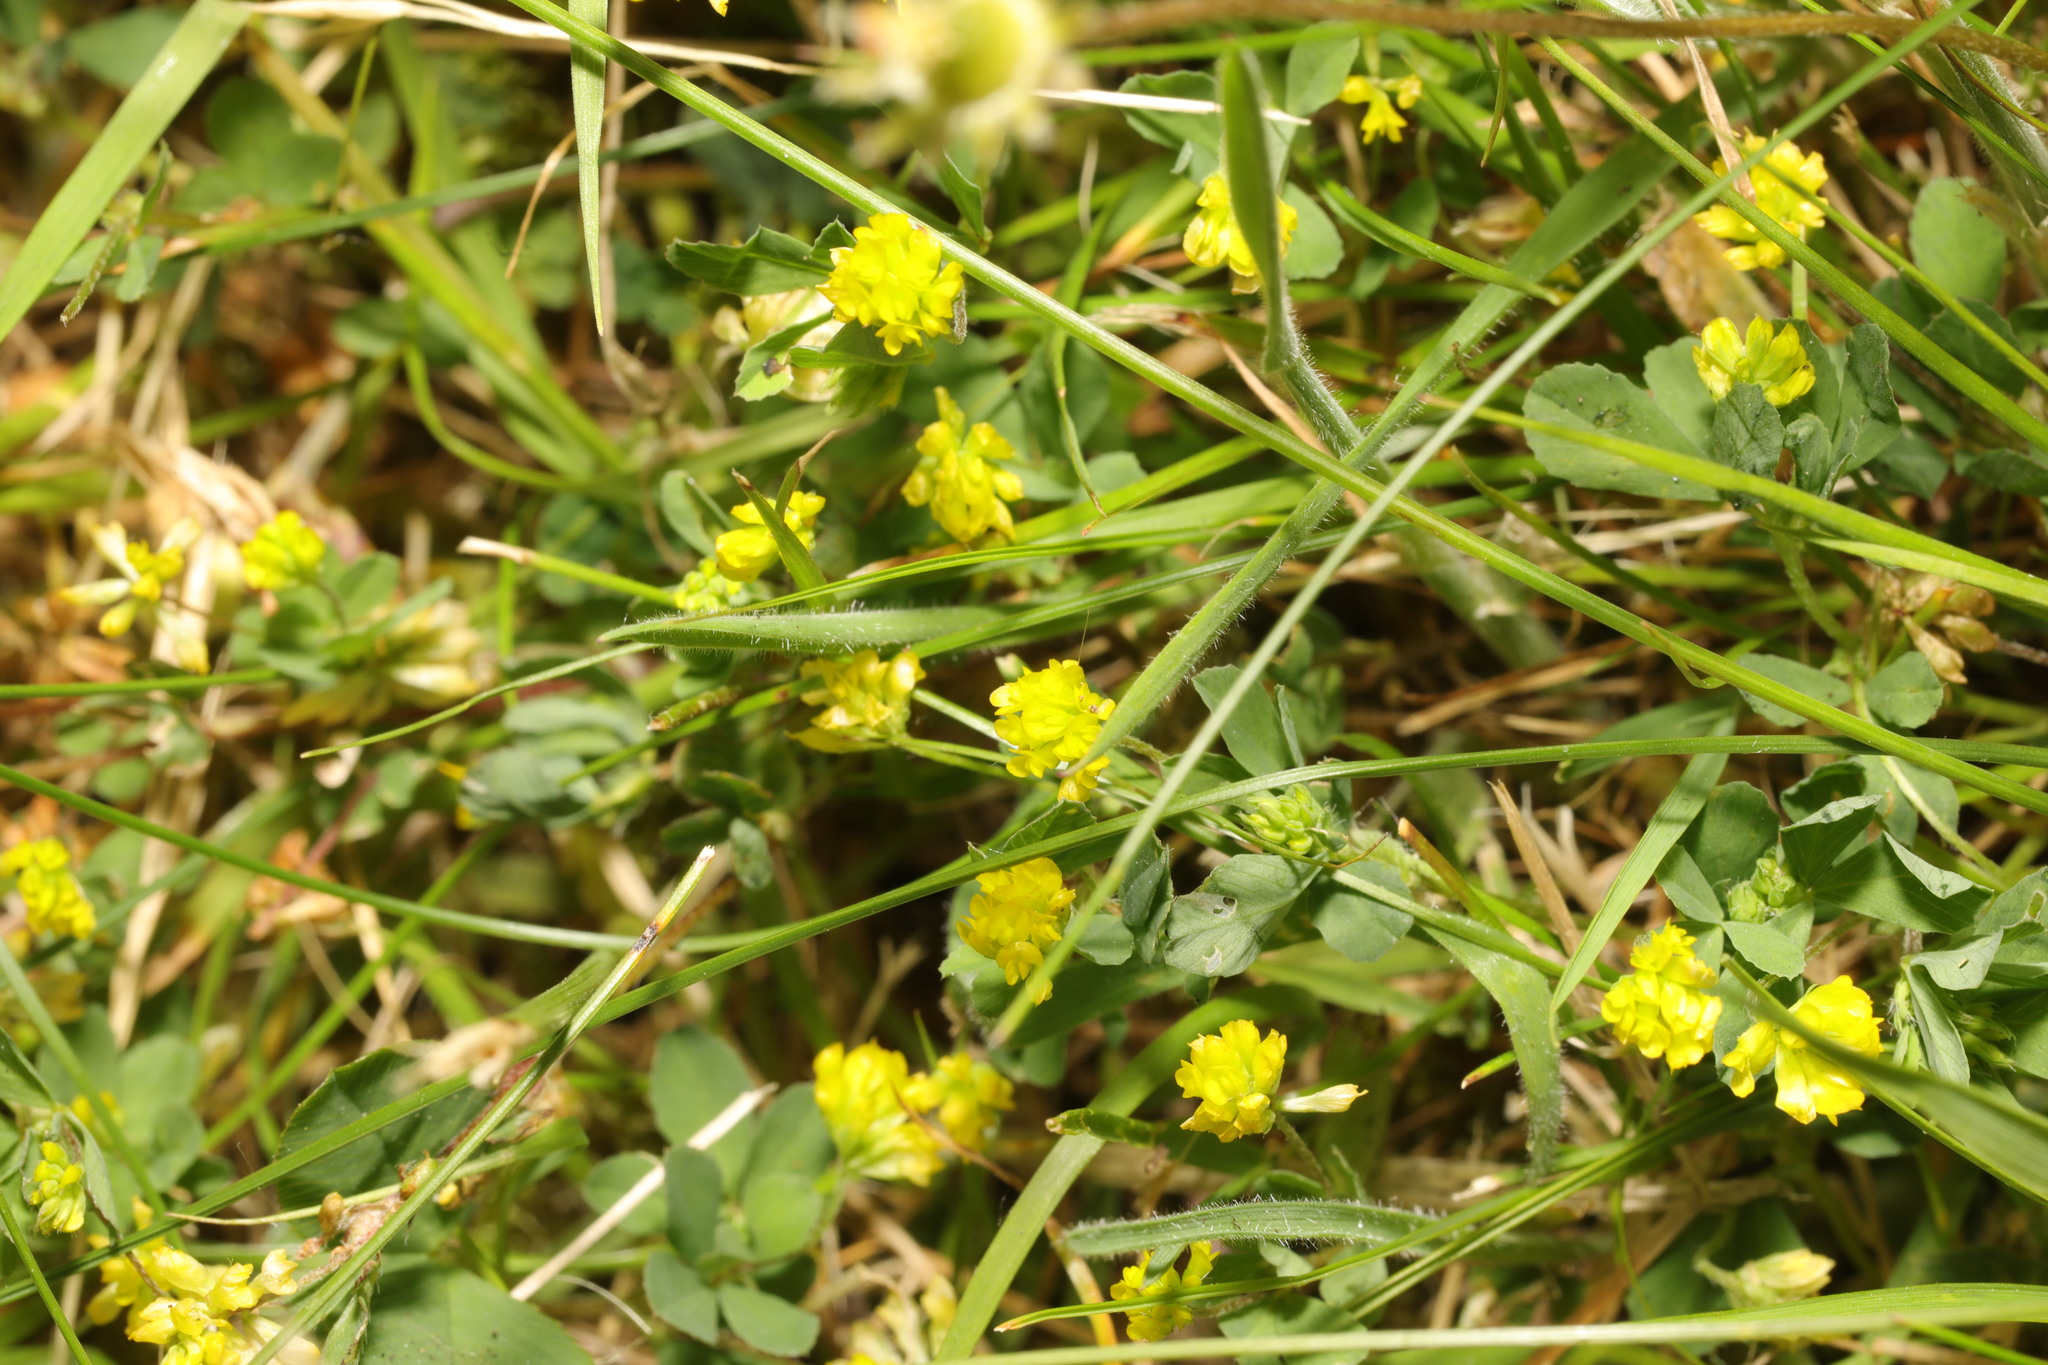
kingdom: Plantae
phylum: Tracheophyta
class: Magnoliopsida
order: Fabales
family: Fabaceae
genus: Trifolium
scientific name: Trifolium dubium
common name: Suckling clover
